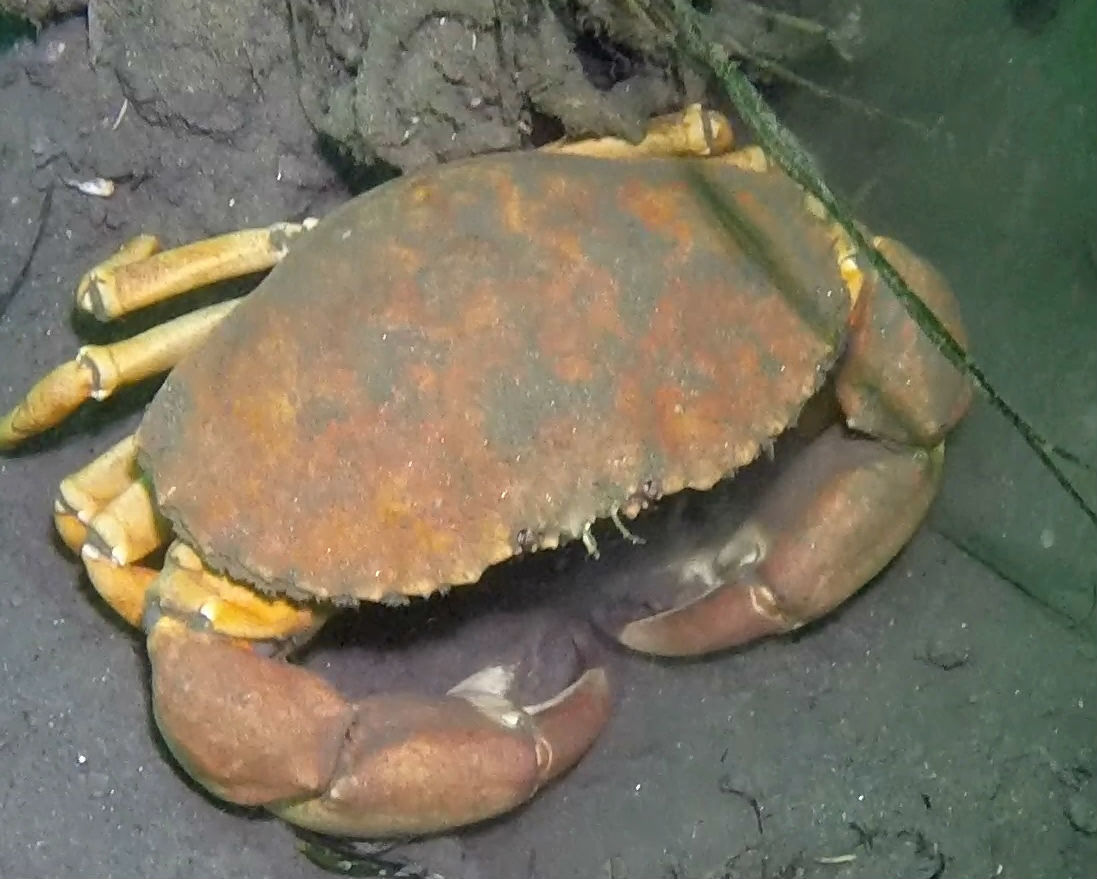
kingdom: Animalia
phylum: Arthropoda
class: Malacostraca
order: Decapoda
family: Cancridae
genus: Metacarcinus
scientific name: Metacarcinus anthonyi
